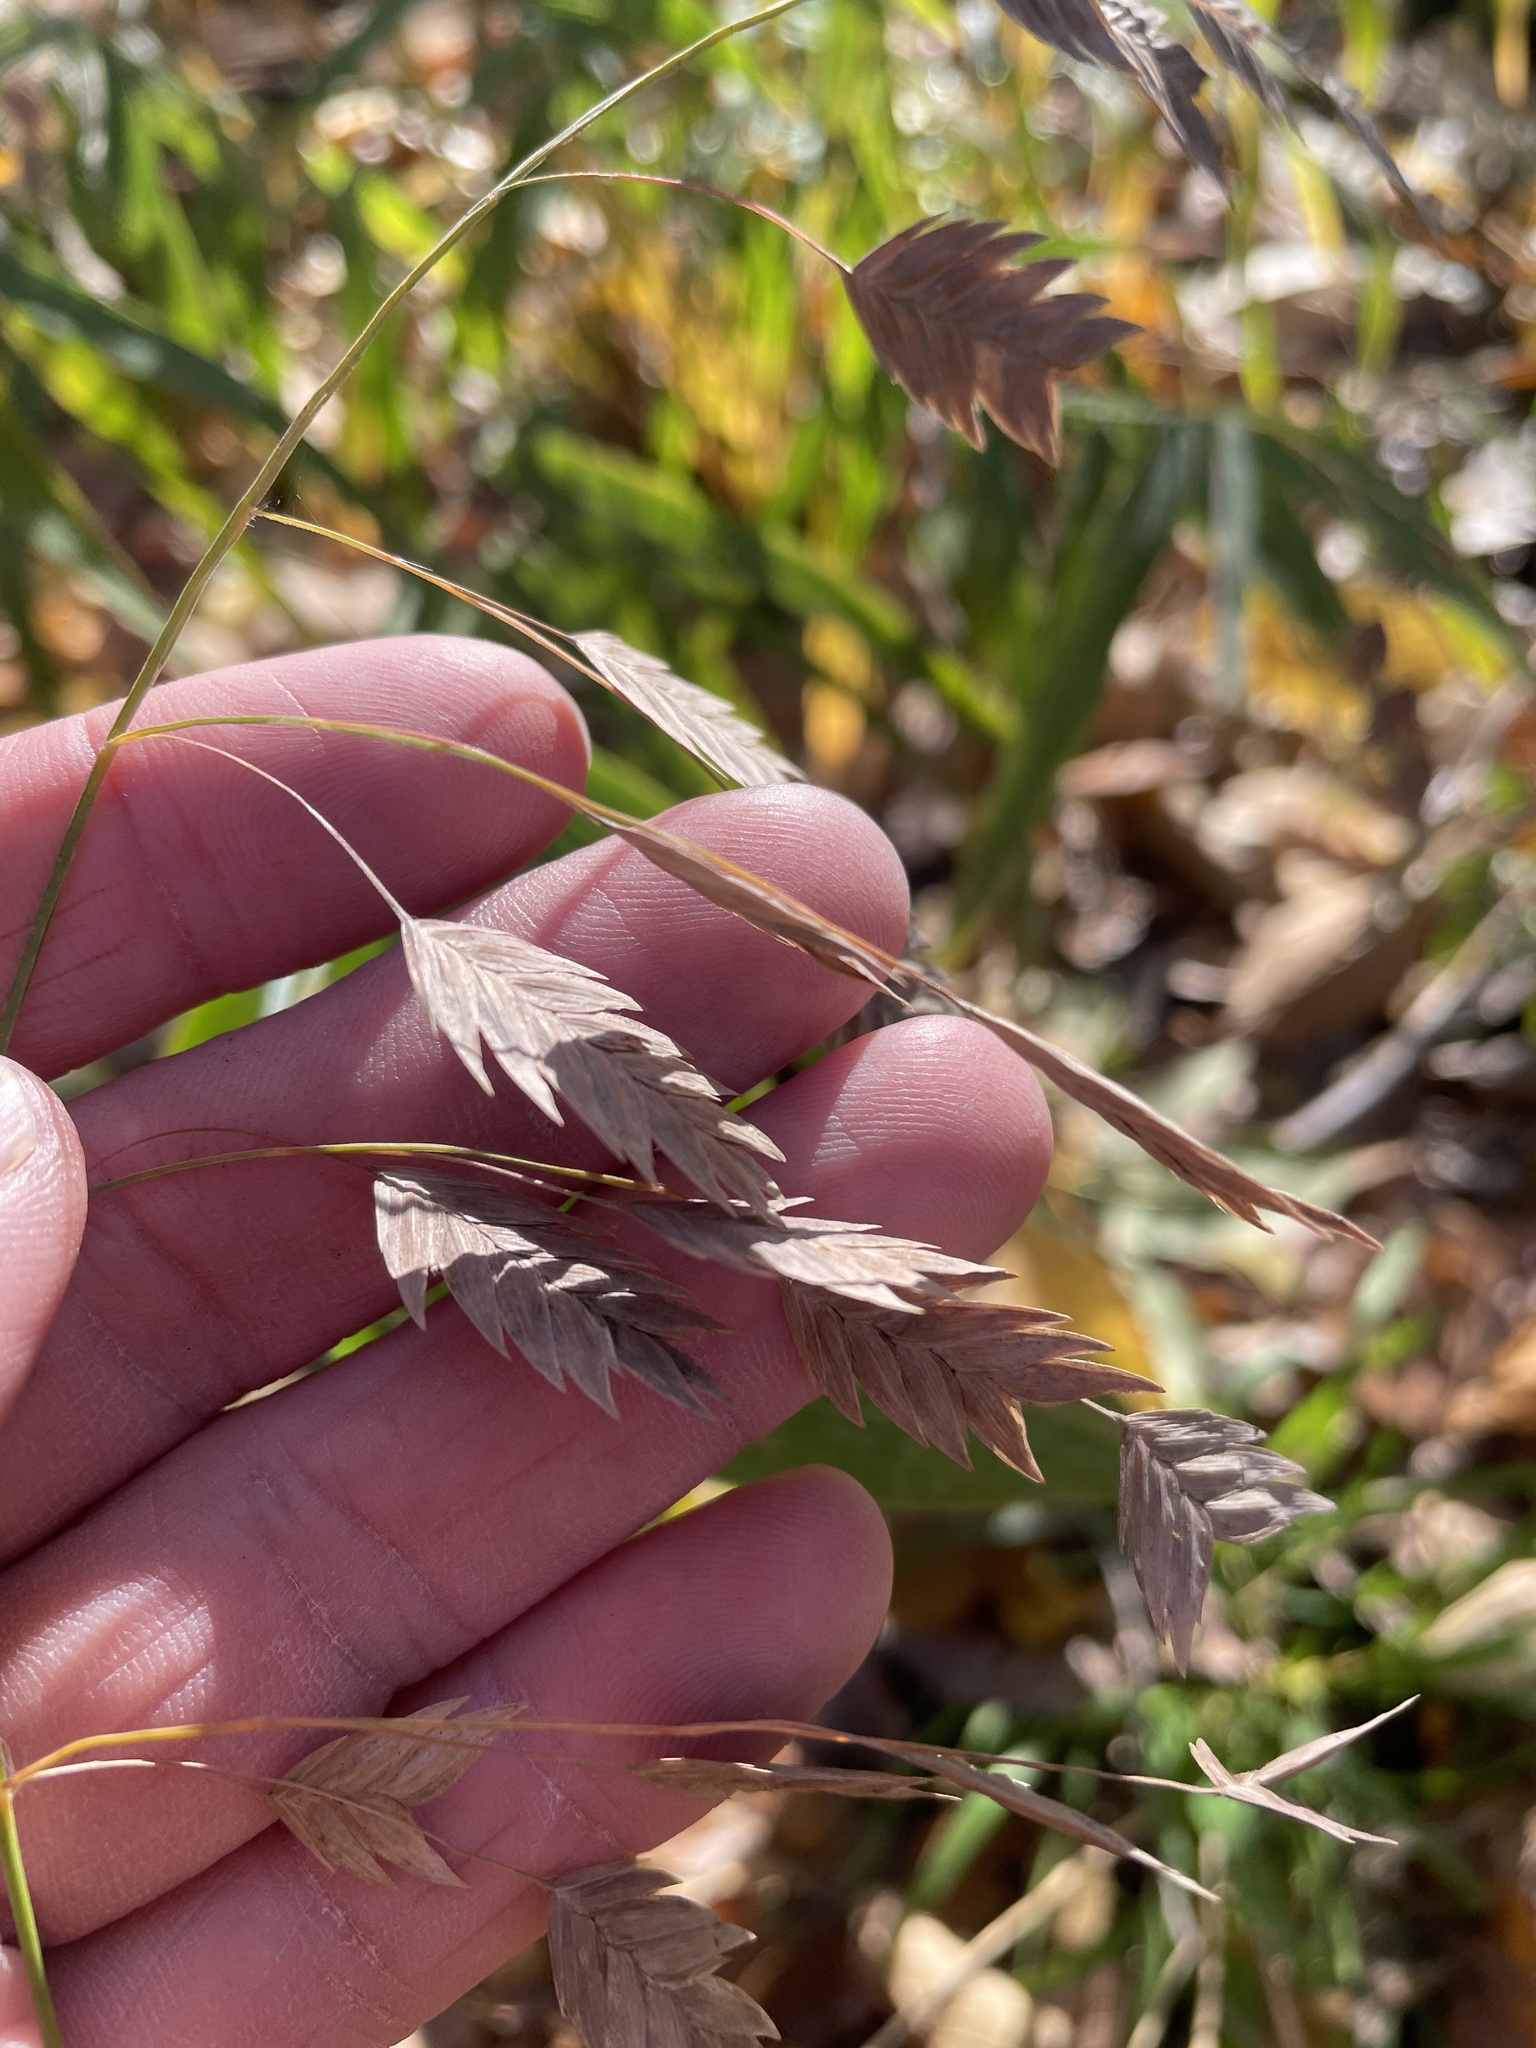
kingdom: Plantae
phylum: Tracheophyta
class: Liliopsida
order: Poales
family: Poaceae
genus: Chasmanthium
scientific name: Chasmanthium latifolium
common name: Broad-leaved chasmanthium
